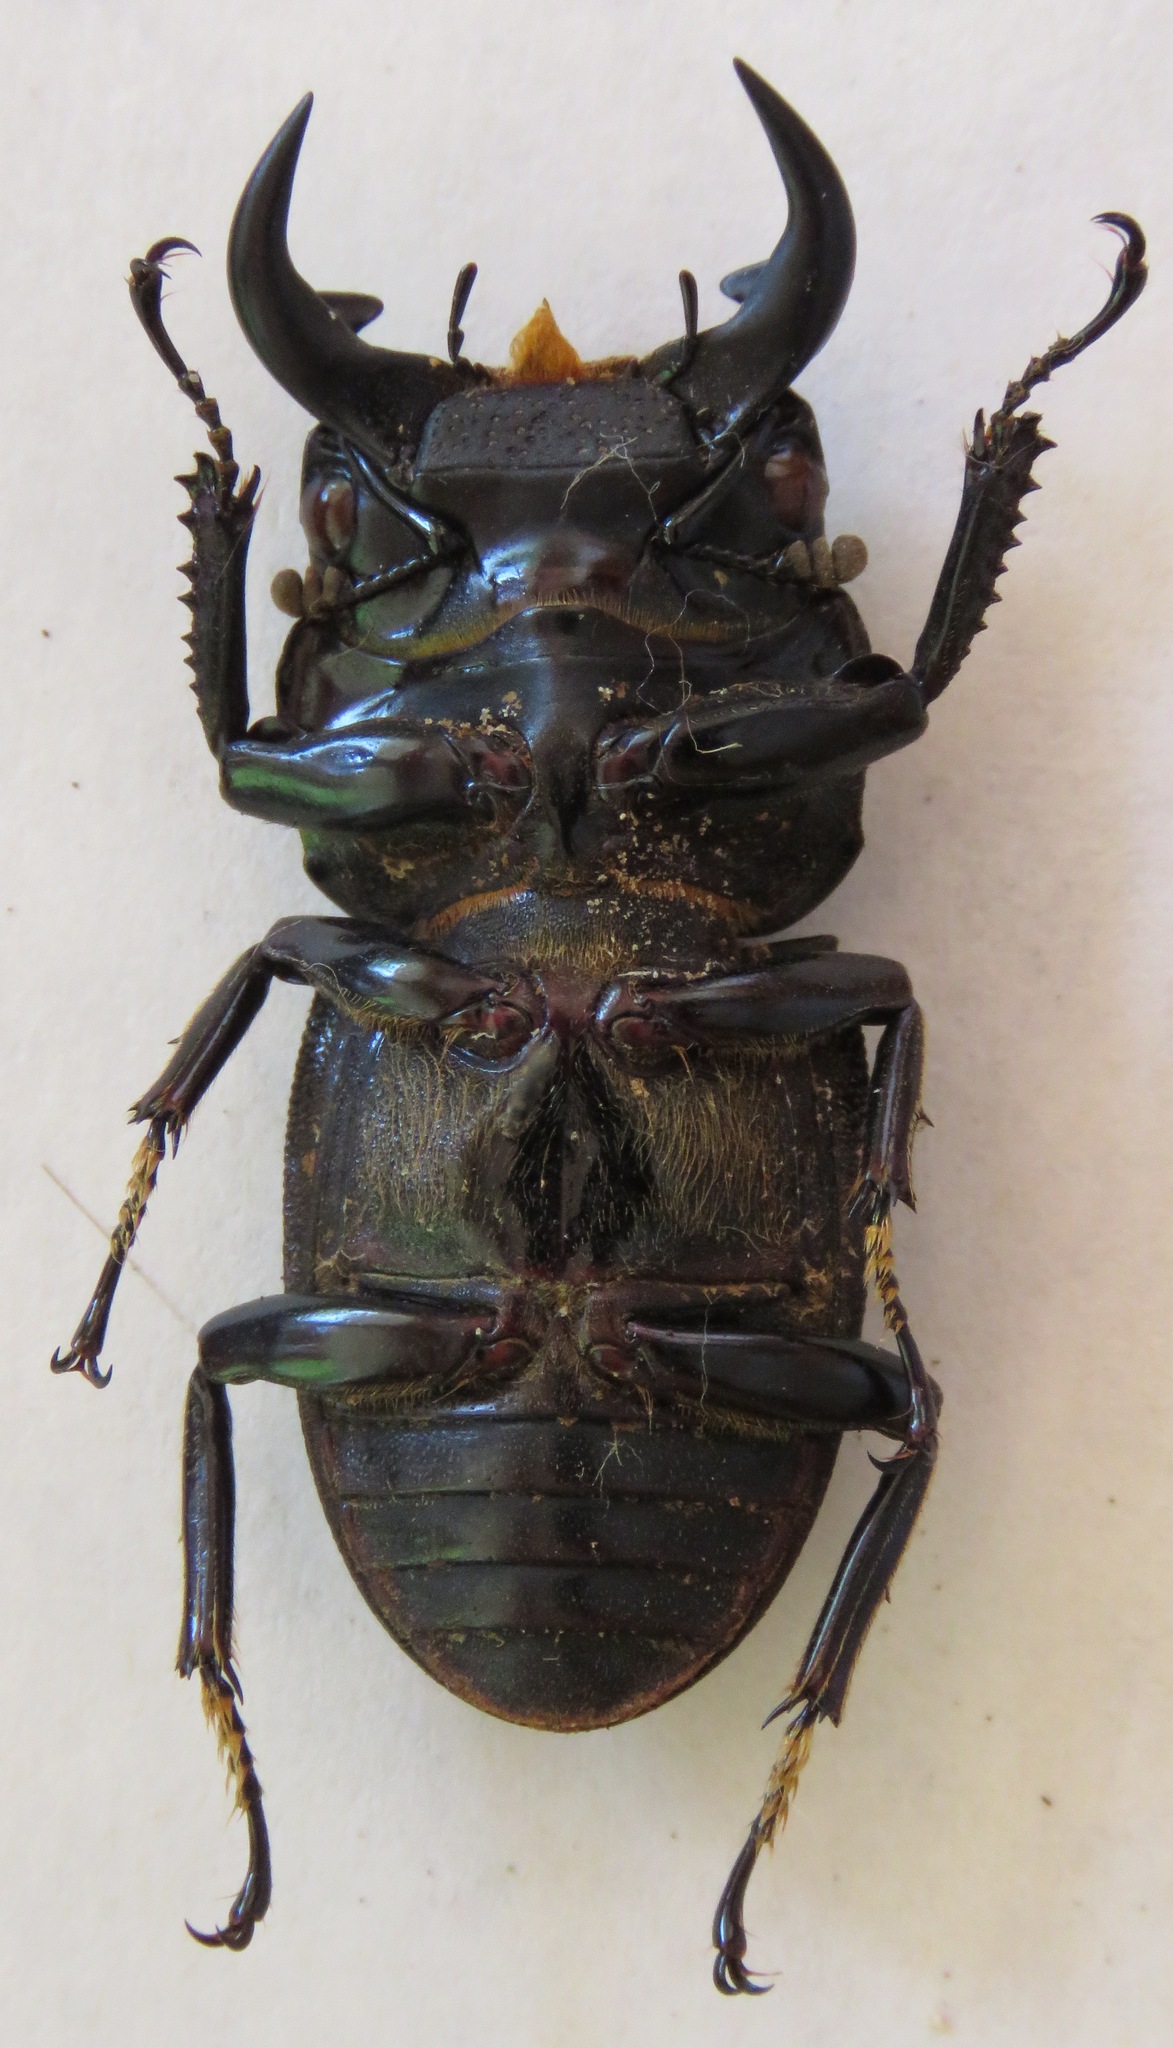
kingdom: Animalia
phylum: Arthropoda
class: Insecta
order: Coleoptera
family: Lucanidae
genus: Dorcus
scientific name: Dorcus ritsemae
